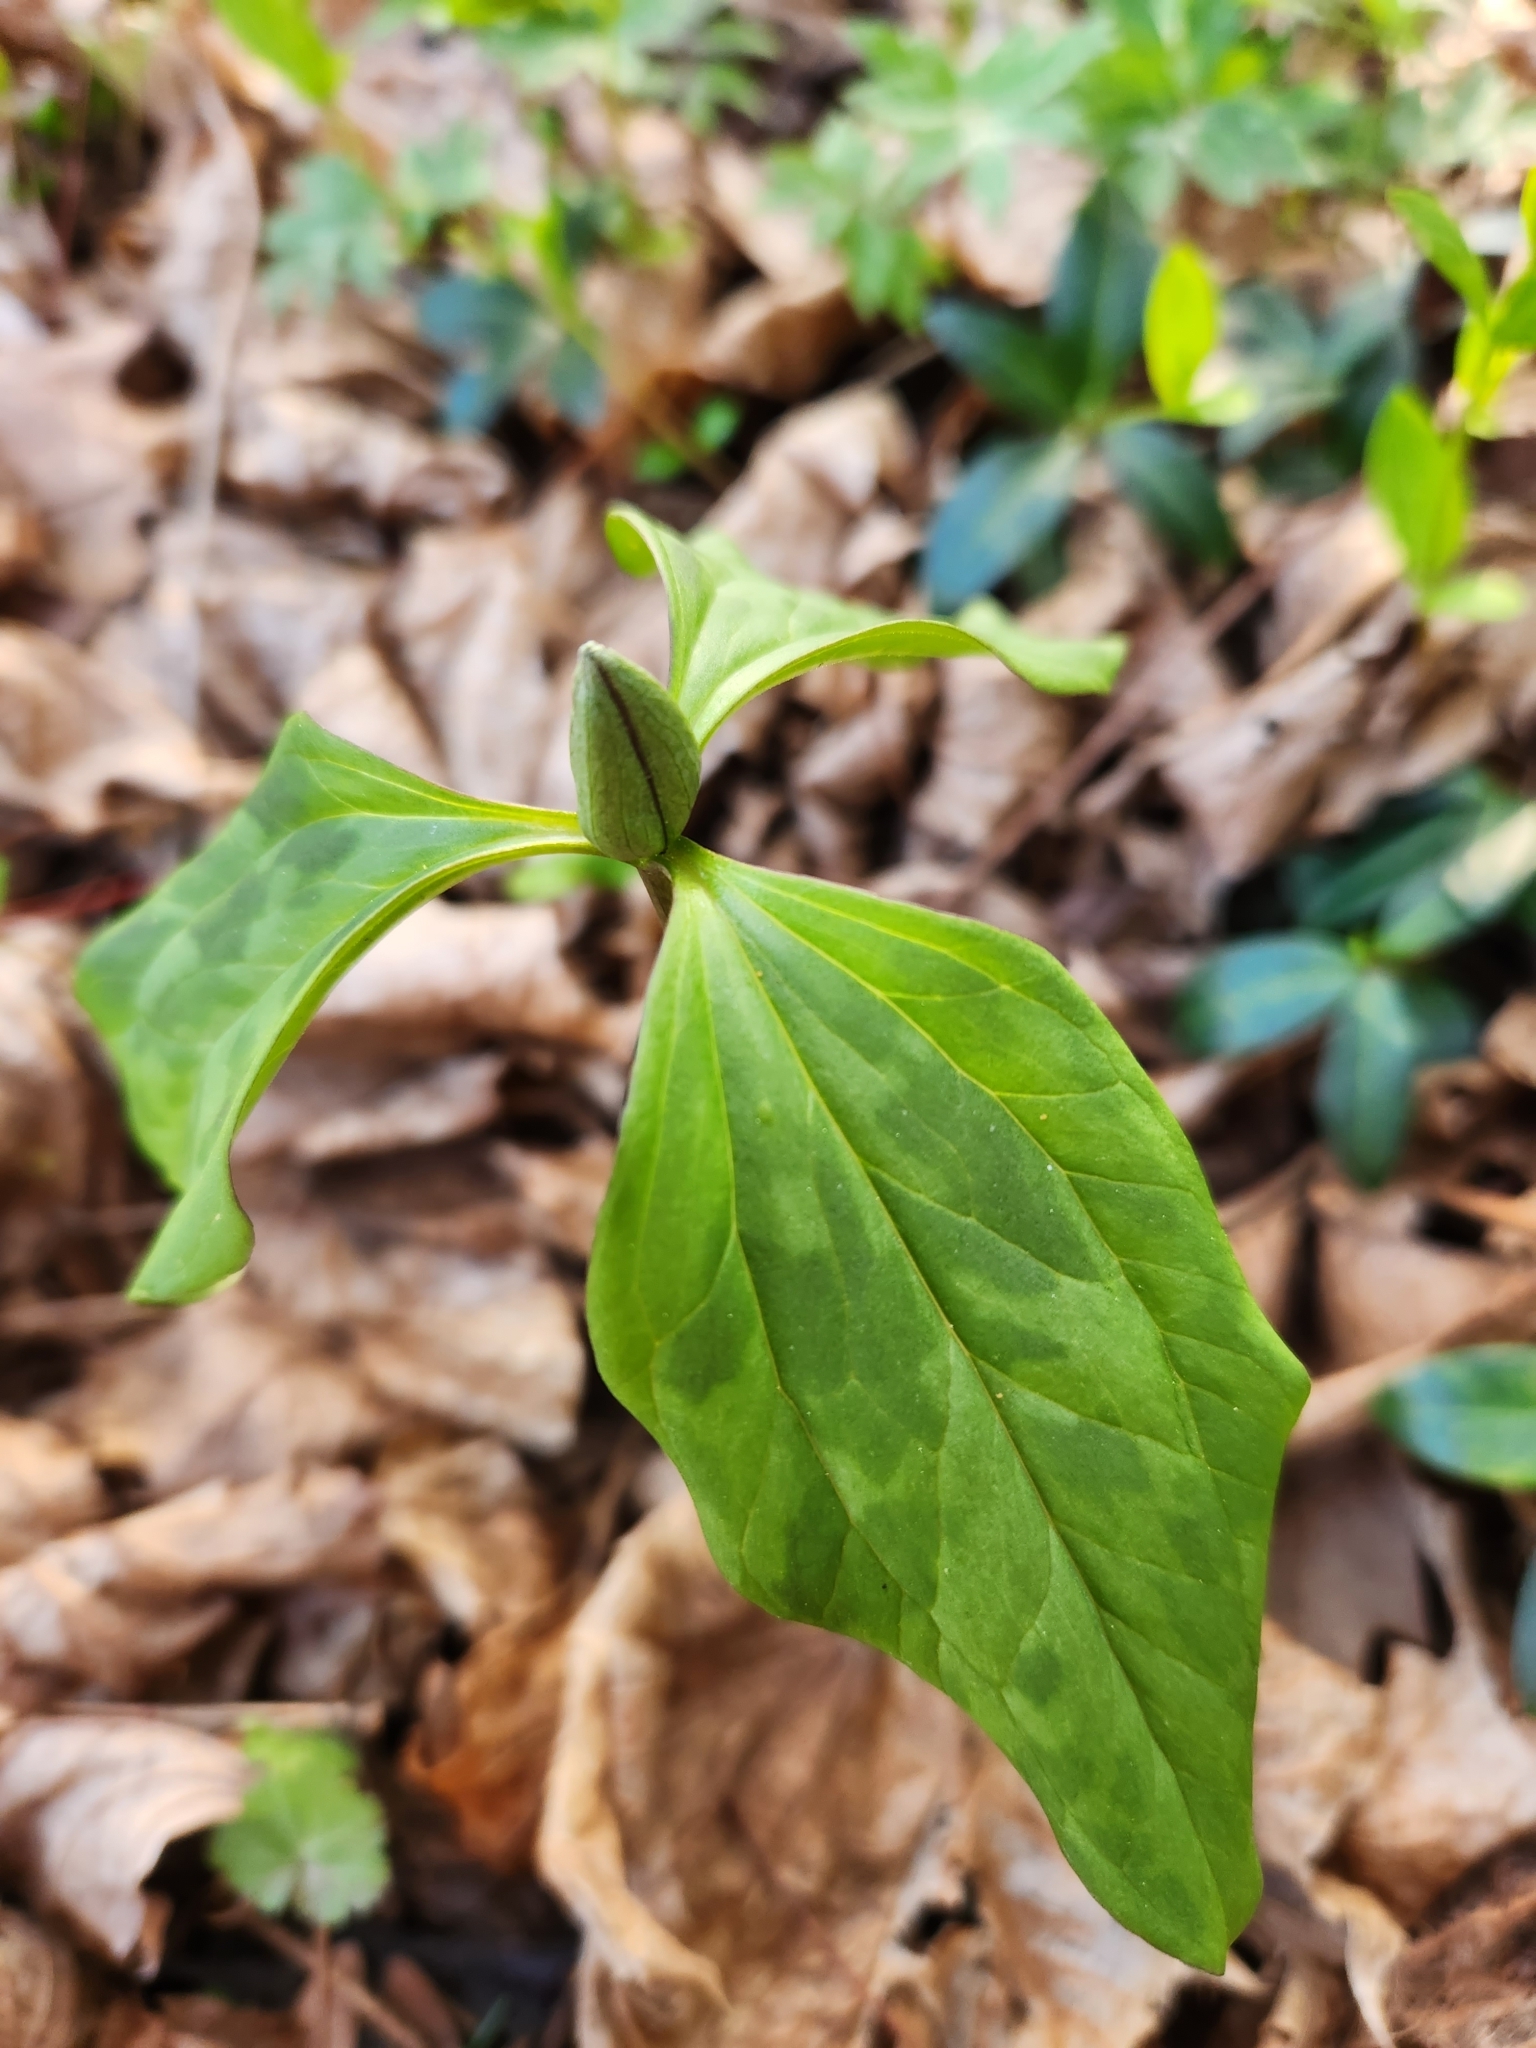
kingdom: Plantae
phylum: Tracheophyta
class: Liliopsida
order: Liliales
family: Melanthiaceae
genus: Trillium
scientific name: Trillium recurvatum
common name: Bloody butcher
